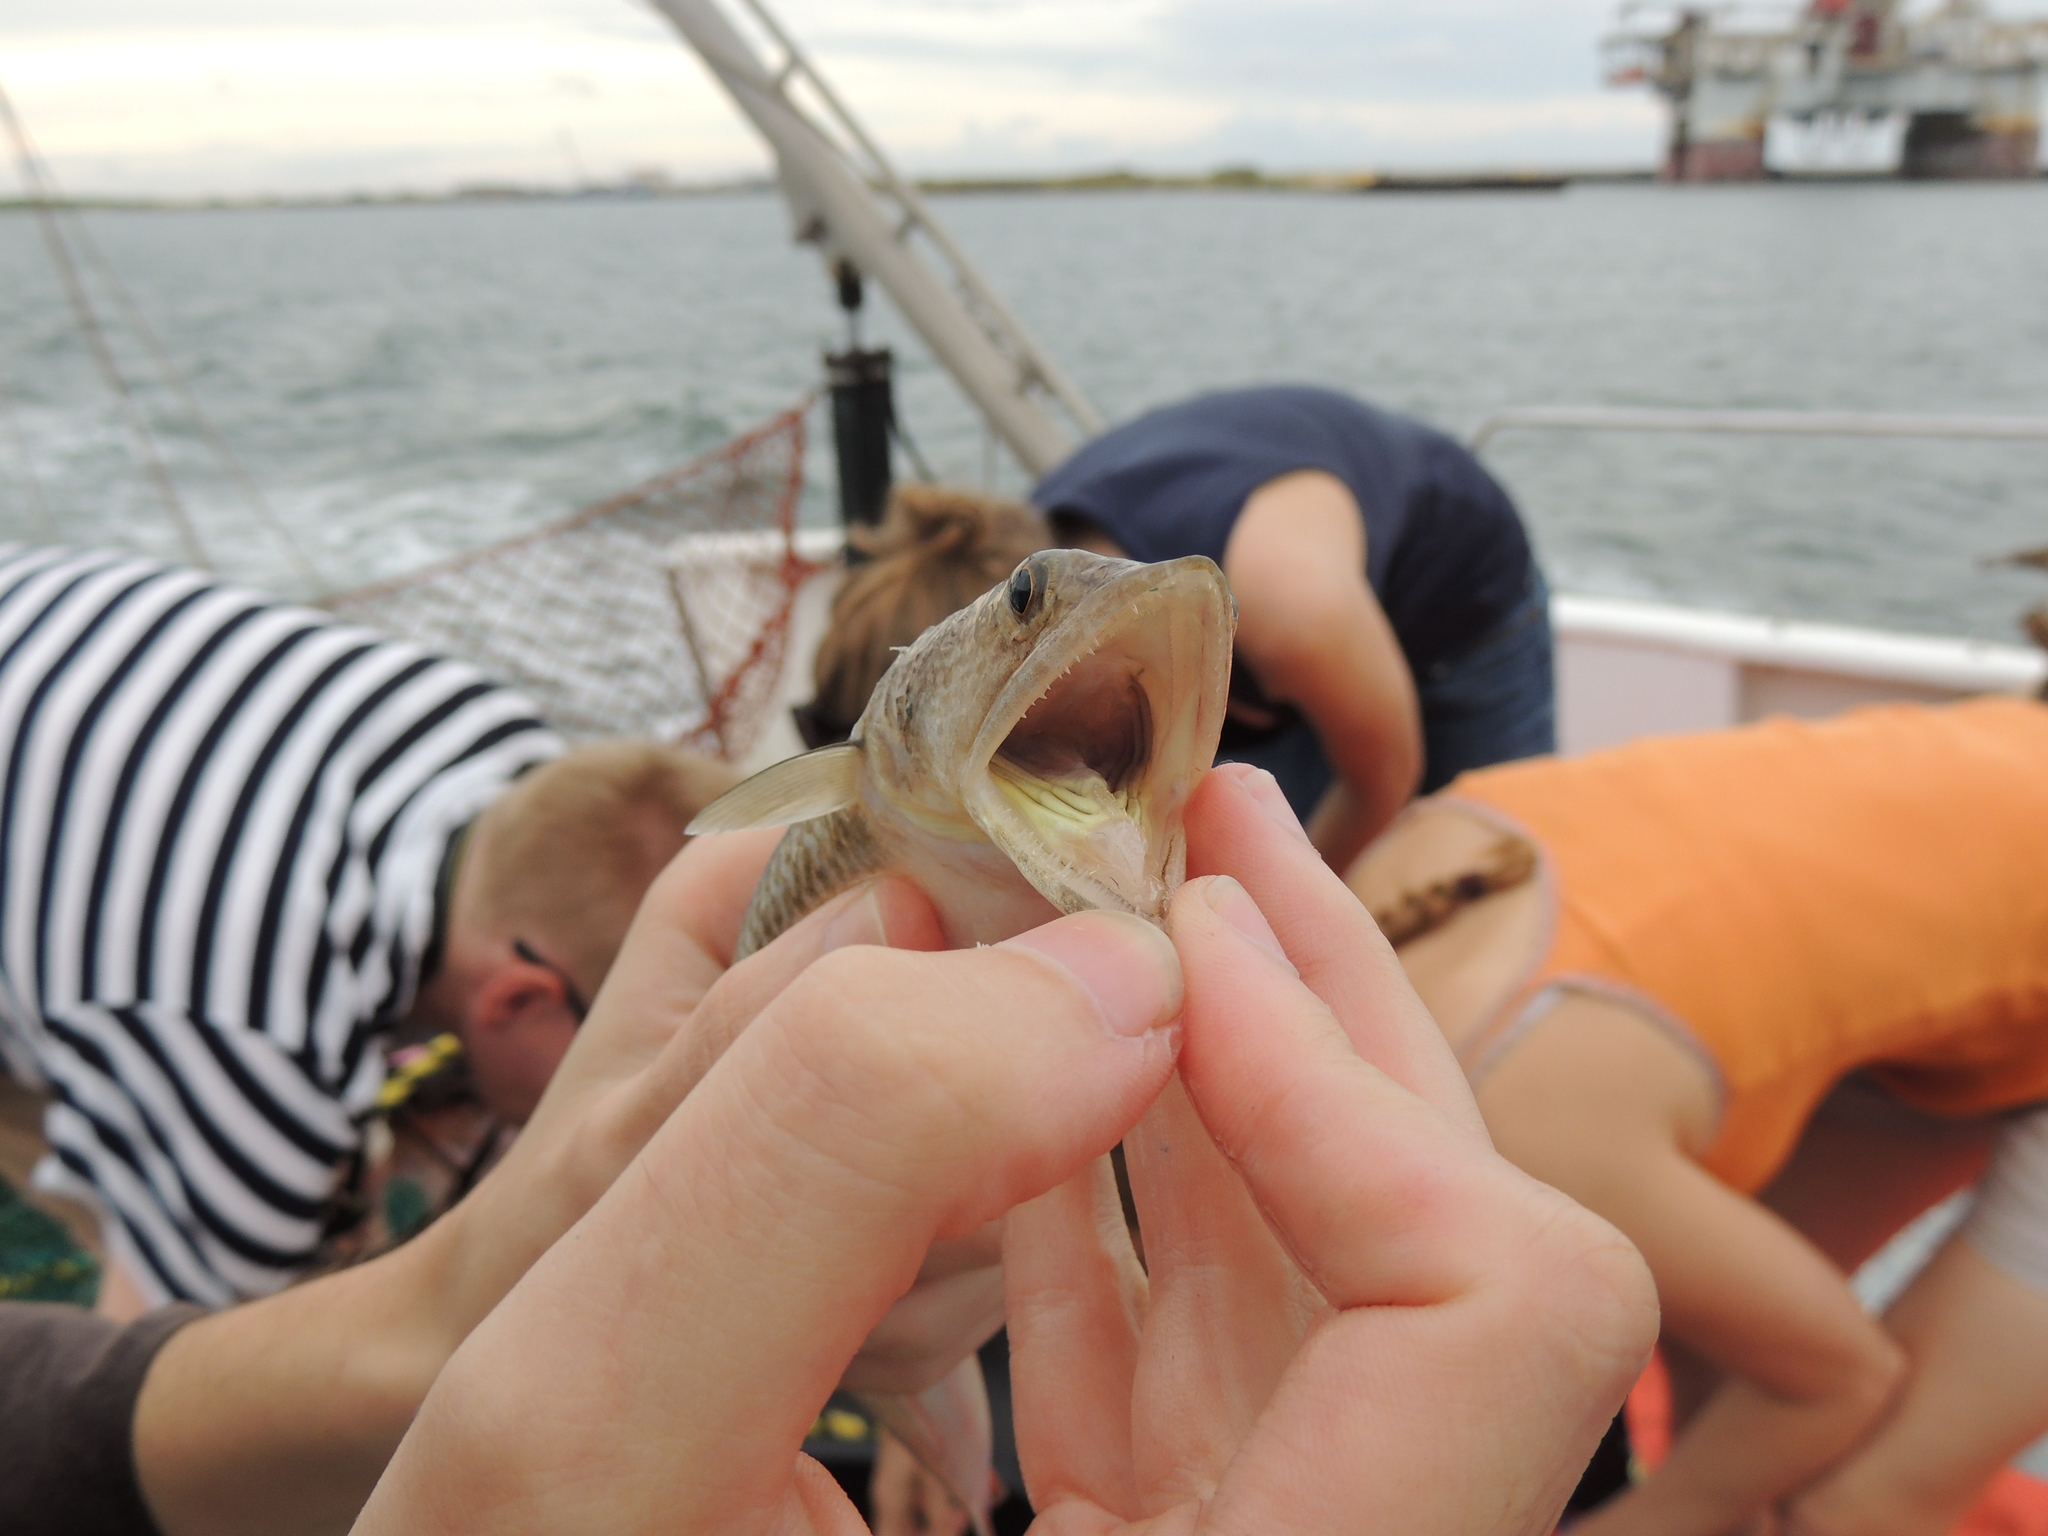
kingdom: Animalia
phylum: Chordata
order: Aulopiformes
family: Synodontidae
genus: Synodus
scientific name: Synodus foetens
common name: Inshore lizardfish
